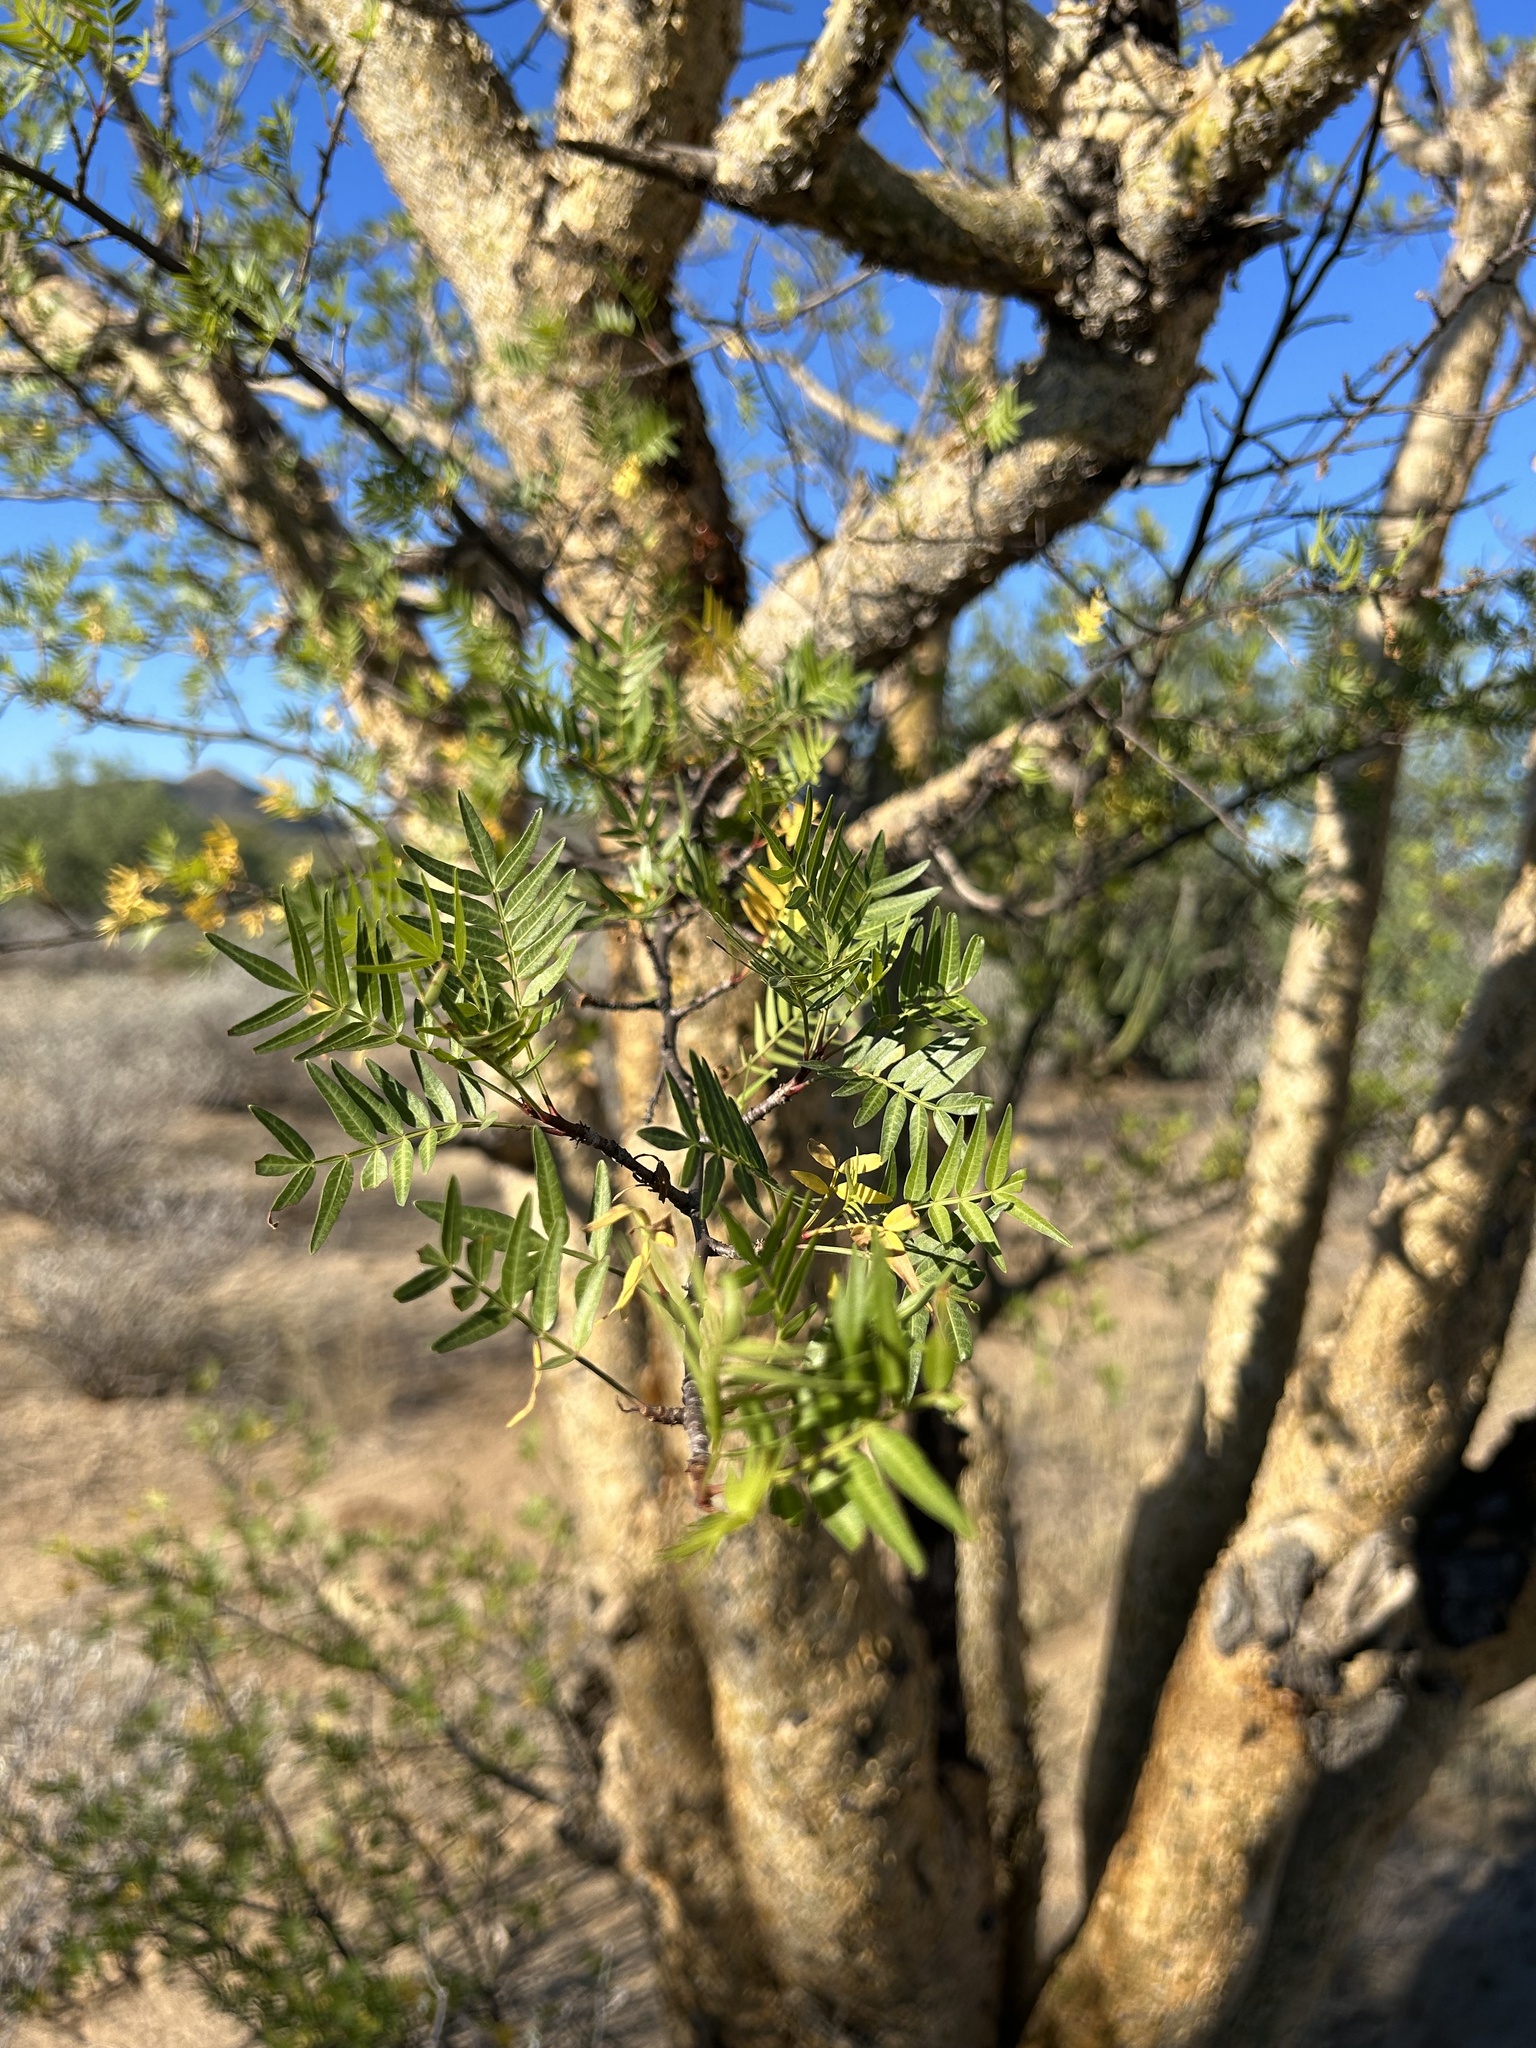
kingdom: Plantae
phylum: Tracheophyta
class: Magnoliopsida
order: Sapindales
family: Burseraceae
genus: Bursera
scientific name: Bursera fagaroides
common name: Elephant tree
